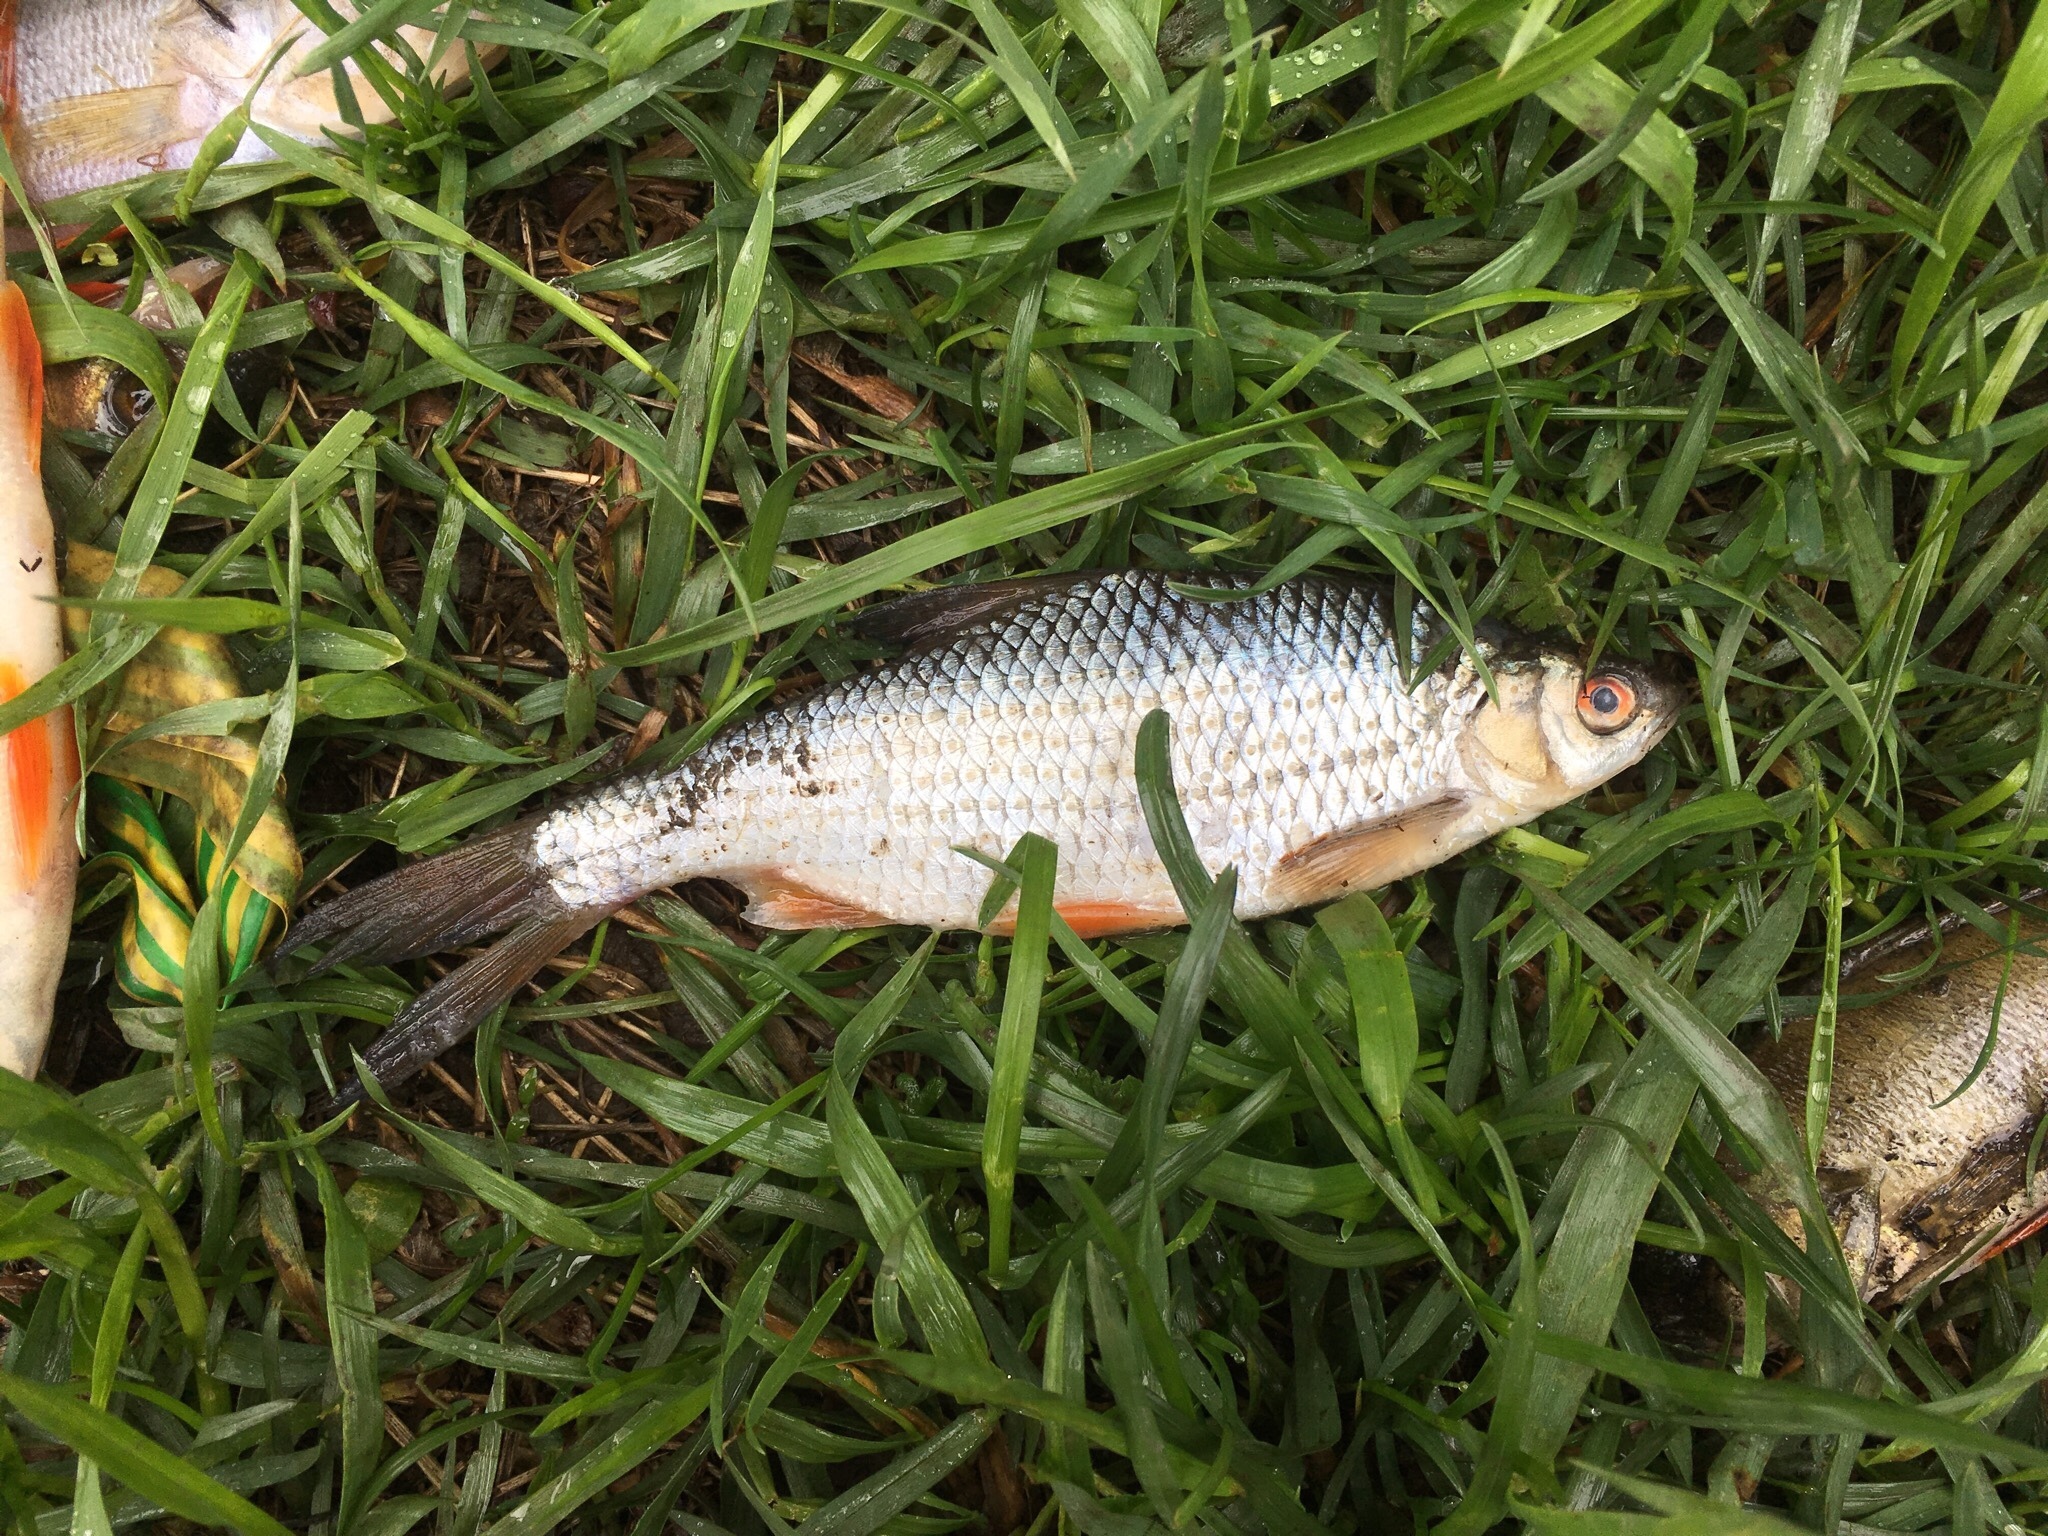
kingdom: Animalia
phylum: Chordata
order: Cypriniformes
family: Cyprinidae
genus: Rutilus
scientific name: Rutilus rutilus
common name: Roach
